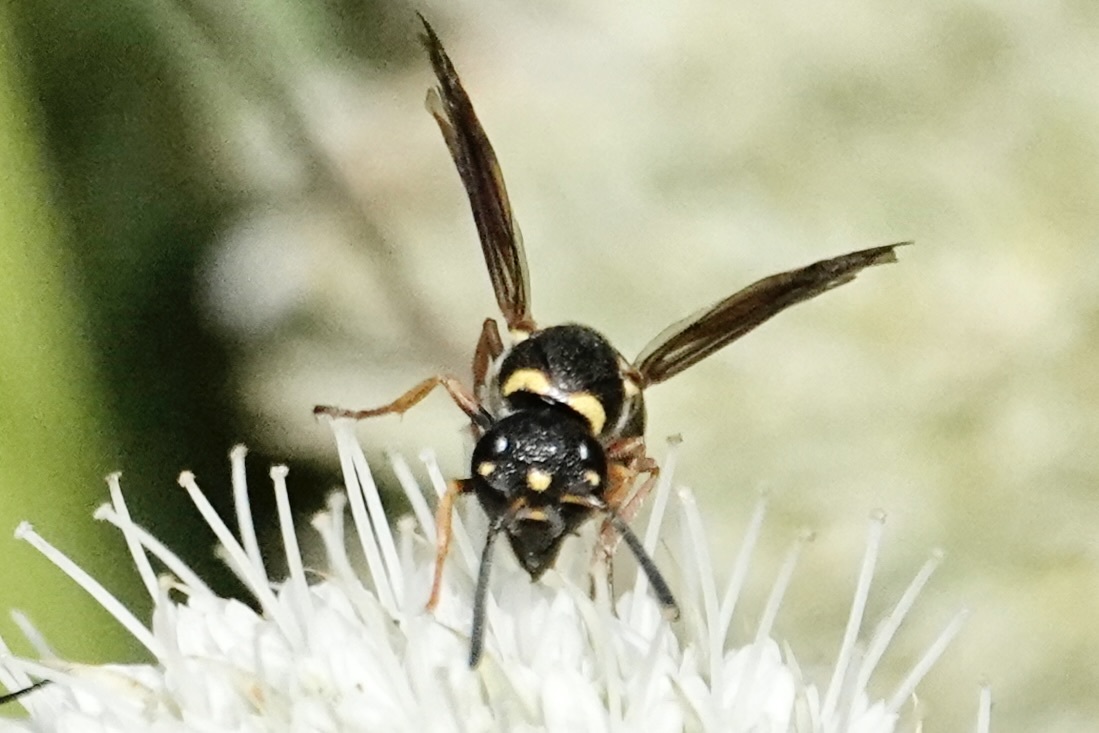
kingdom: Animalia
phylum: Arthropoda
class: Insecta
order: Hymenoptera
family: Eumenidae
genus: Parancistrocerus
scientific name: Parancistrocerus fulvipes
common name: Potter wasp
